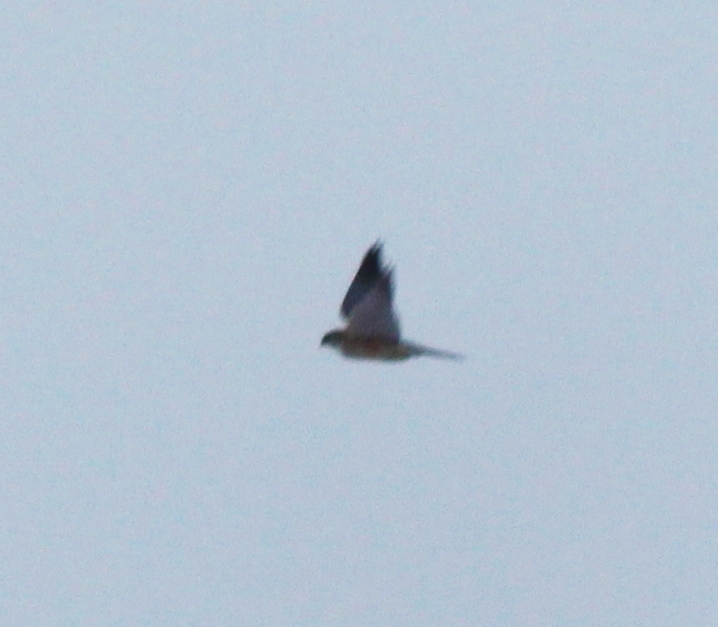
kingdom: Animalia
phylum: Chordata
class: Aves
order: Falconiformes
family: Falconidae
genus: Falco
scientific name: Falco columbarius
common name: Merlin
